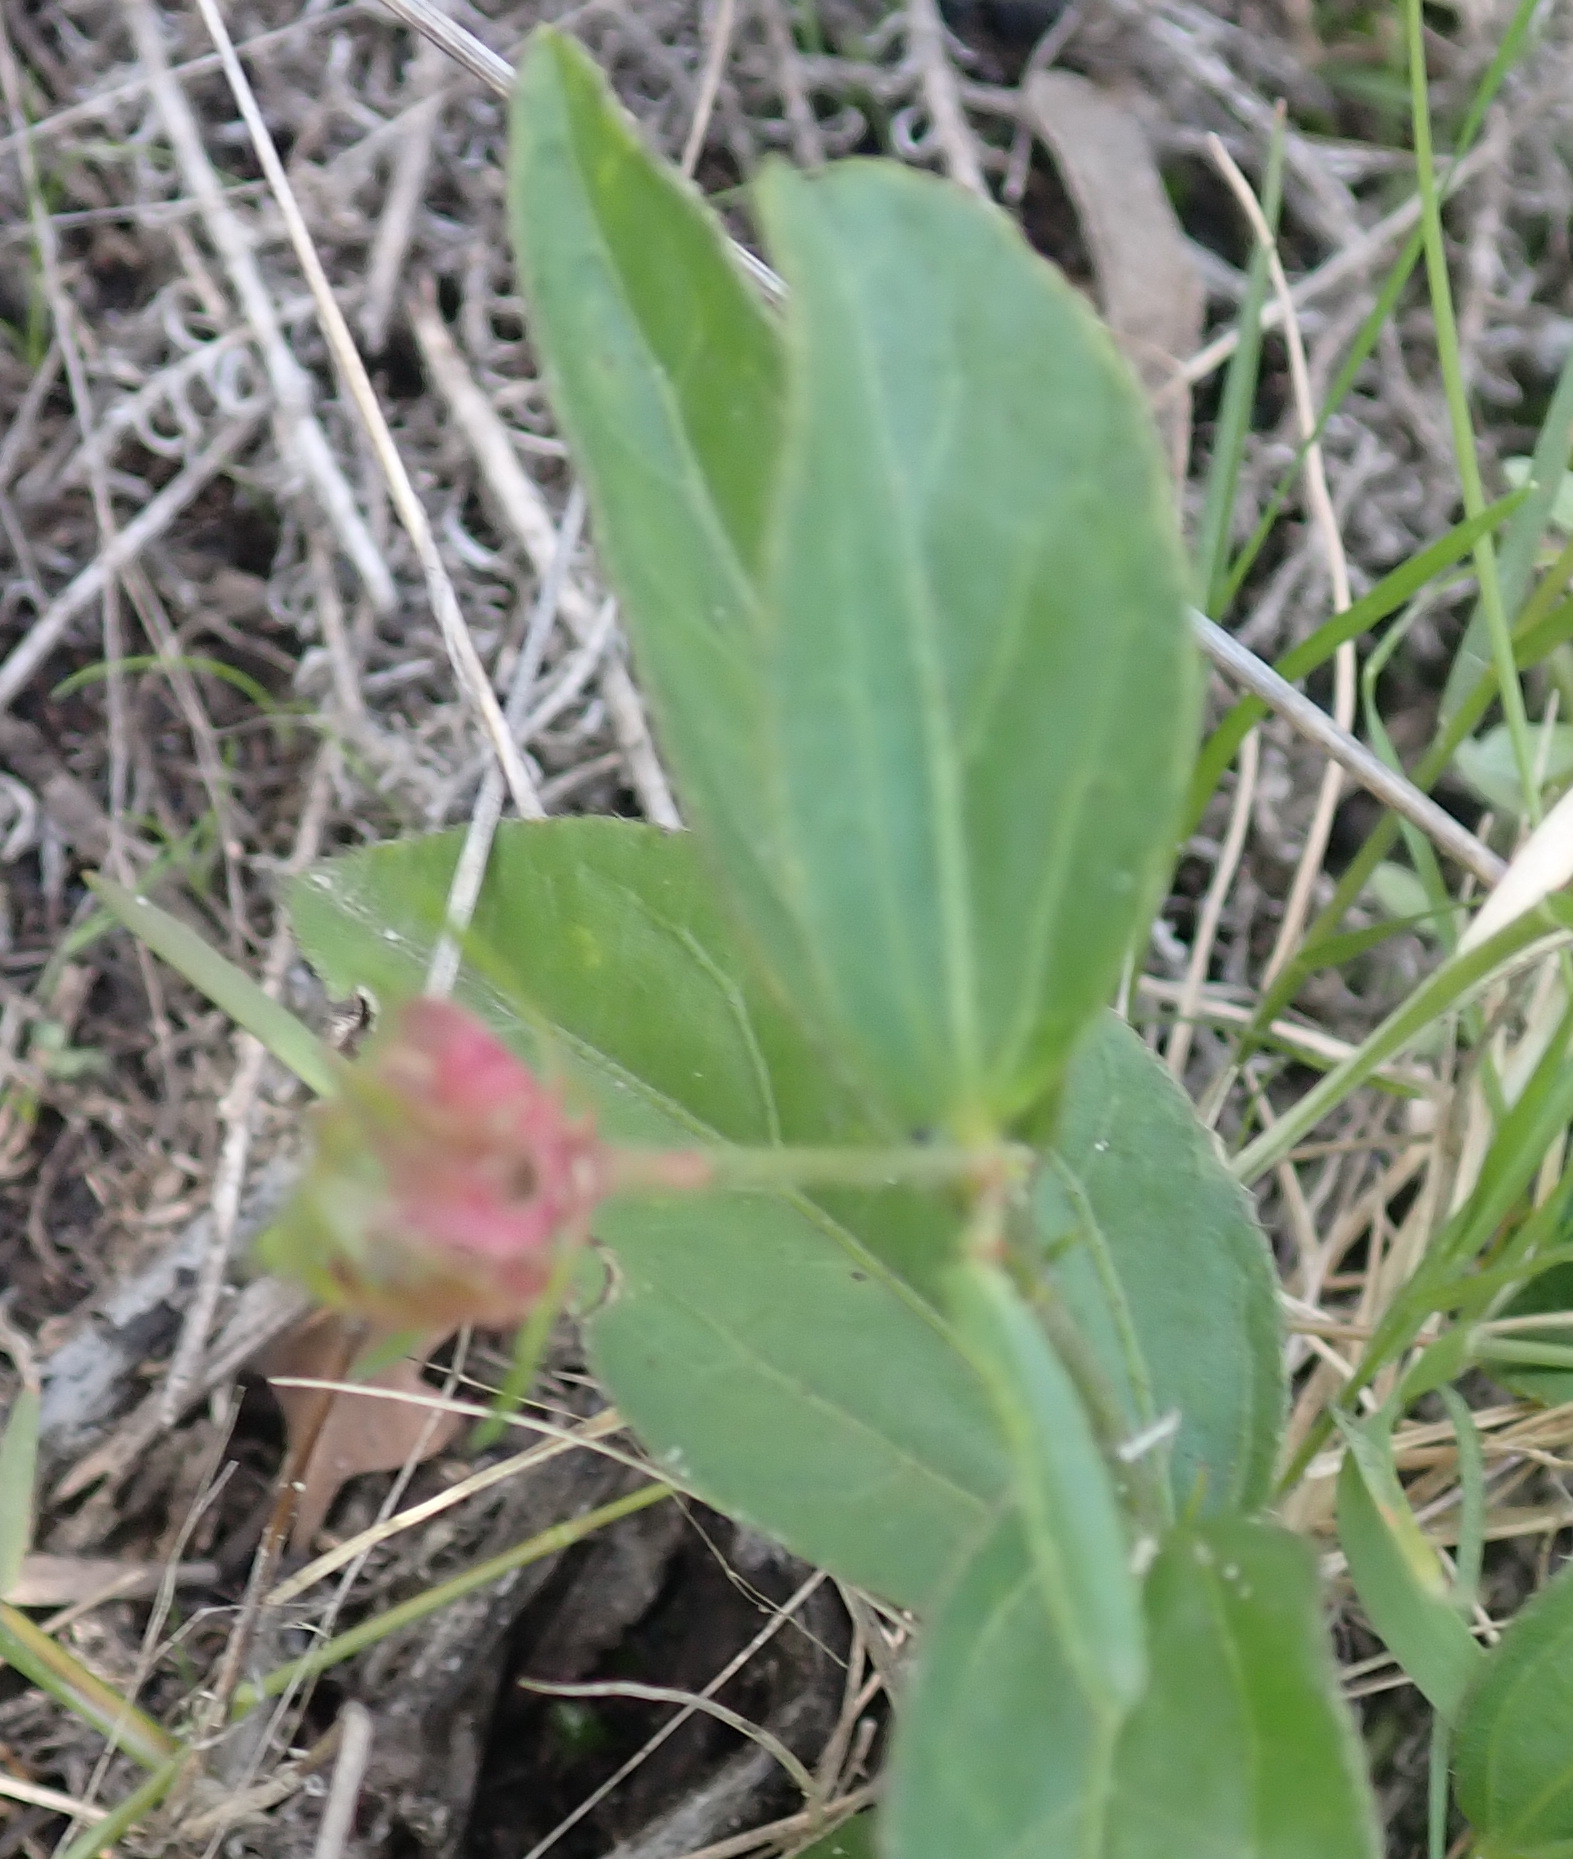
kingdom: Plantae
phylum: Tracheophyta
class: Magnoliopsida
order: Malvales
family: Malvaceae
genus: Hibiscus
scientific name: Hibiscus aethiopicus
